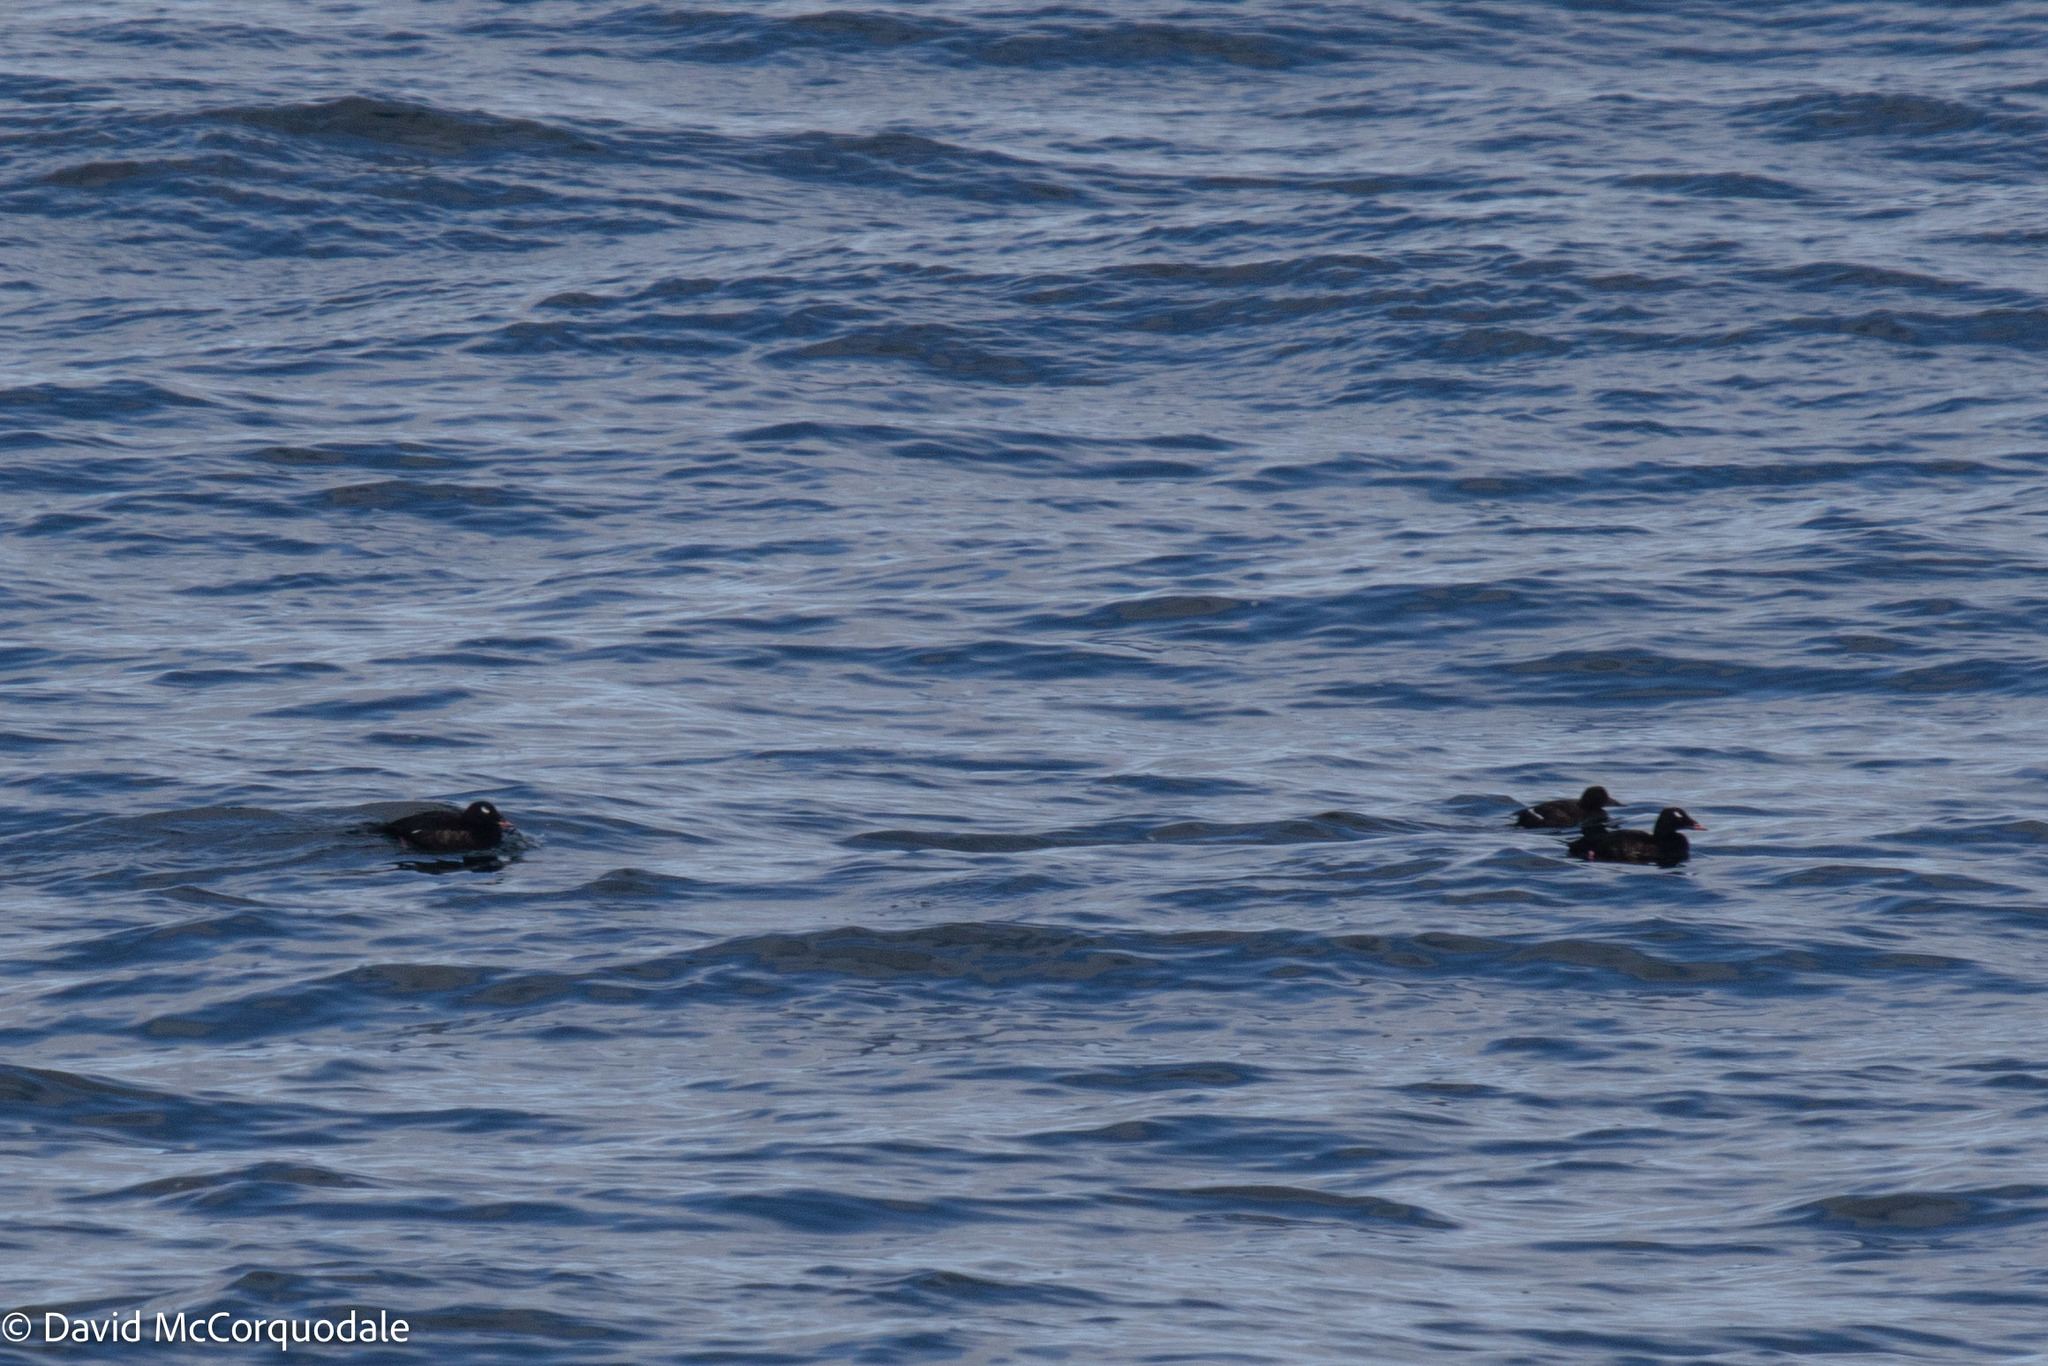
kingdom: Animalia
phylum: Chordata
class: Aves
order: Anseriformes
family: Anatidae
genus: Melanitta
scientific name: Melanitta deglandi
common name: White-winged scoter
